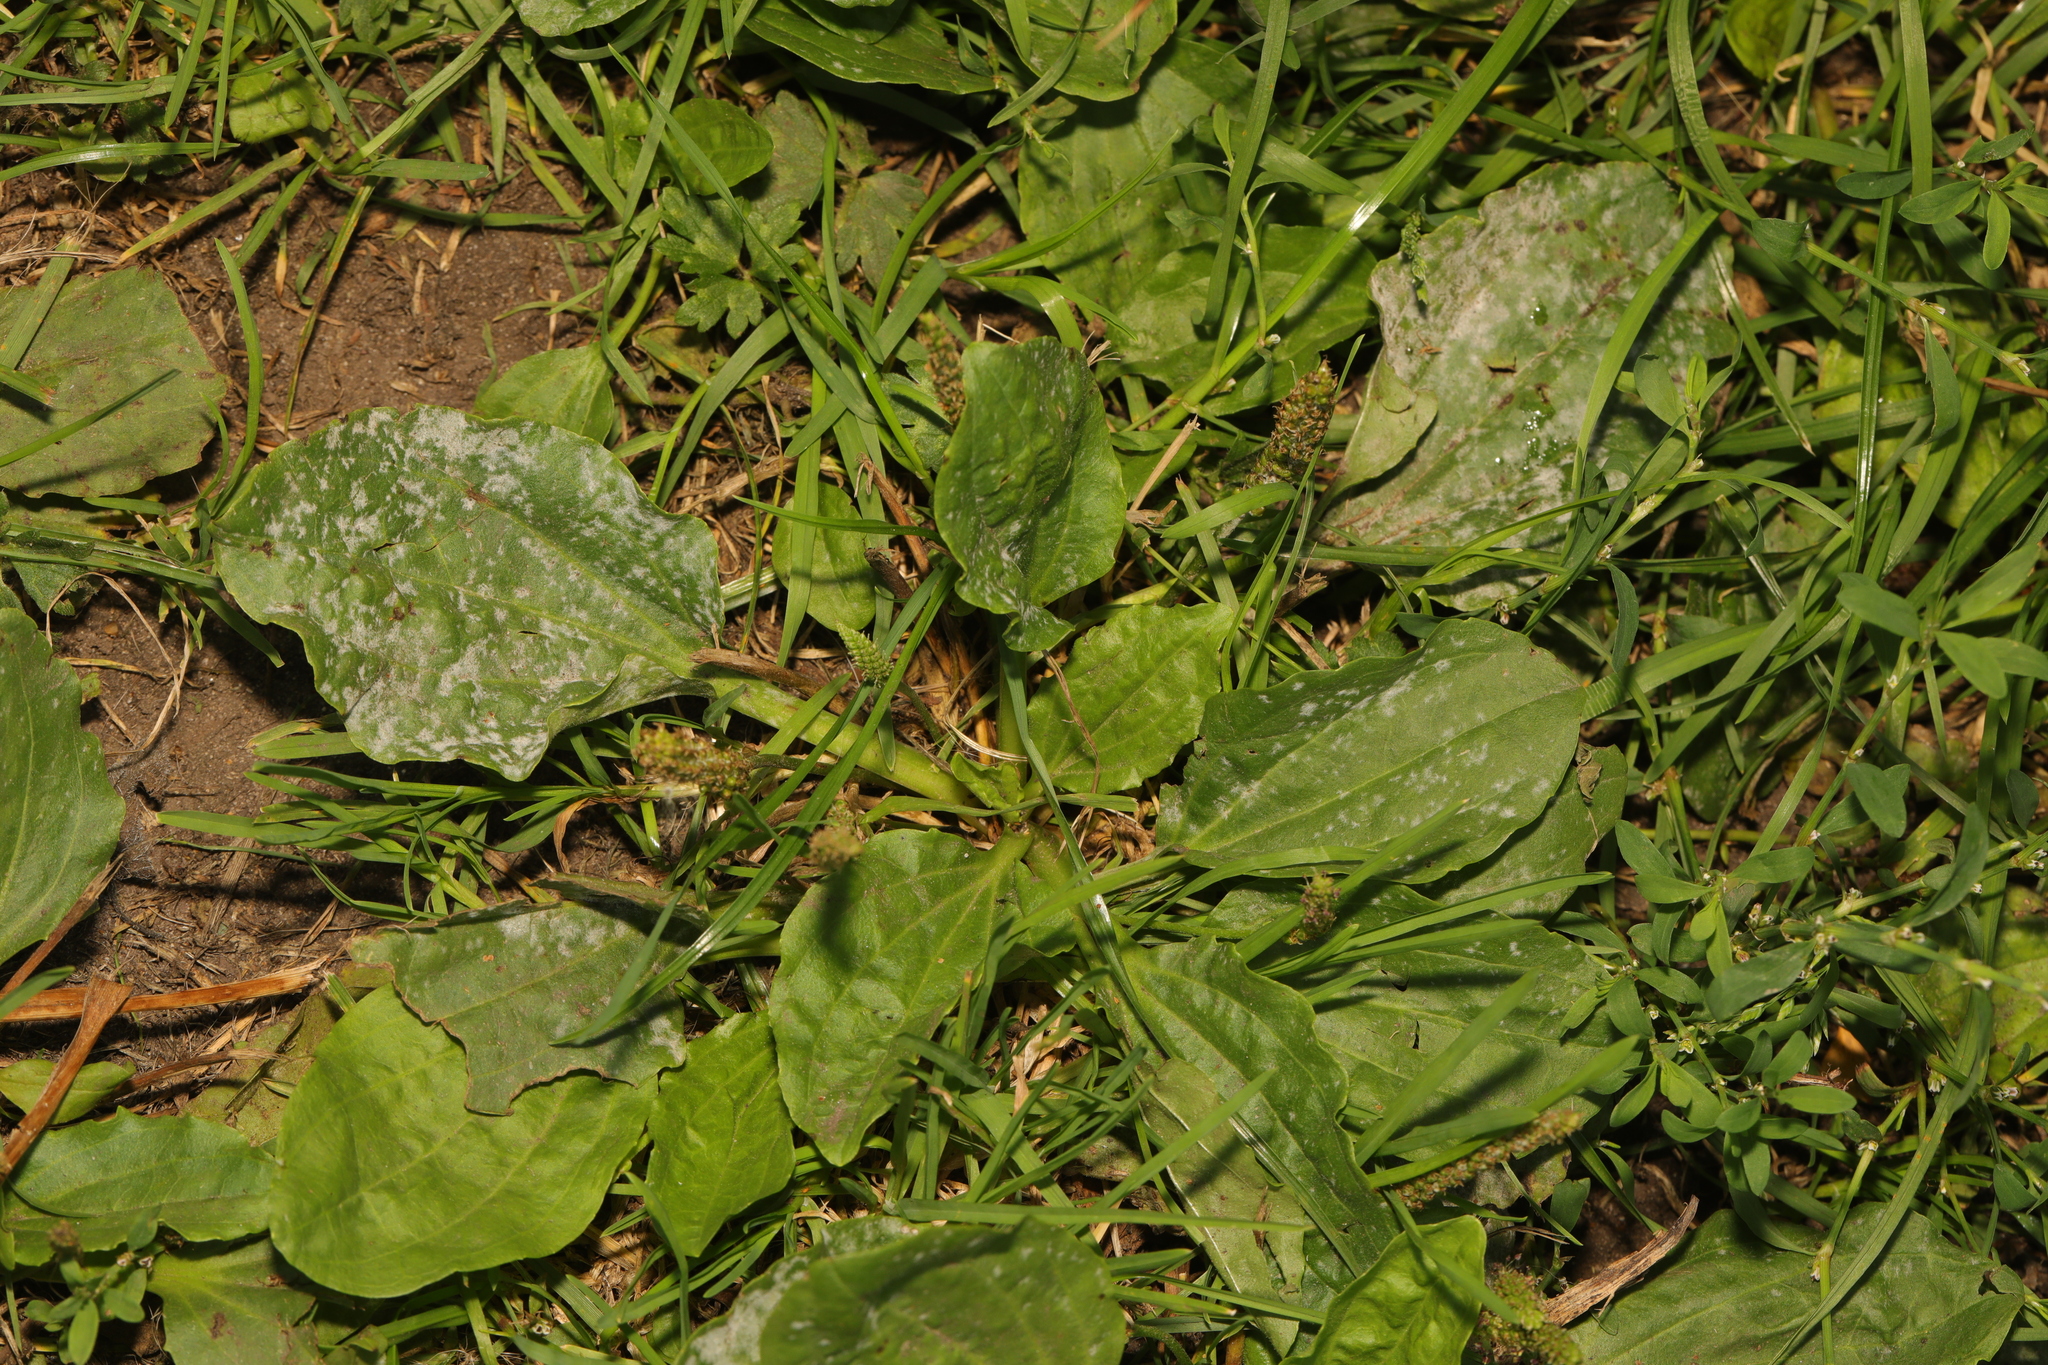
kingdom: Plantae
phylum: Tracheophyta
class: Magnoliopsida
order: Lamiales
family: Plantaginaceae
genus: Plantago
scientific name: Plantago major
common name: Common plantain
